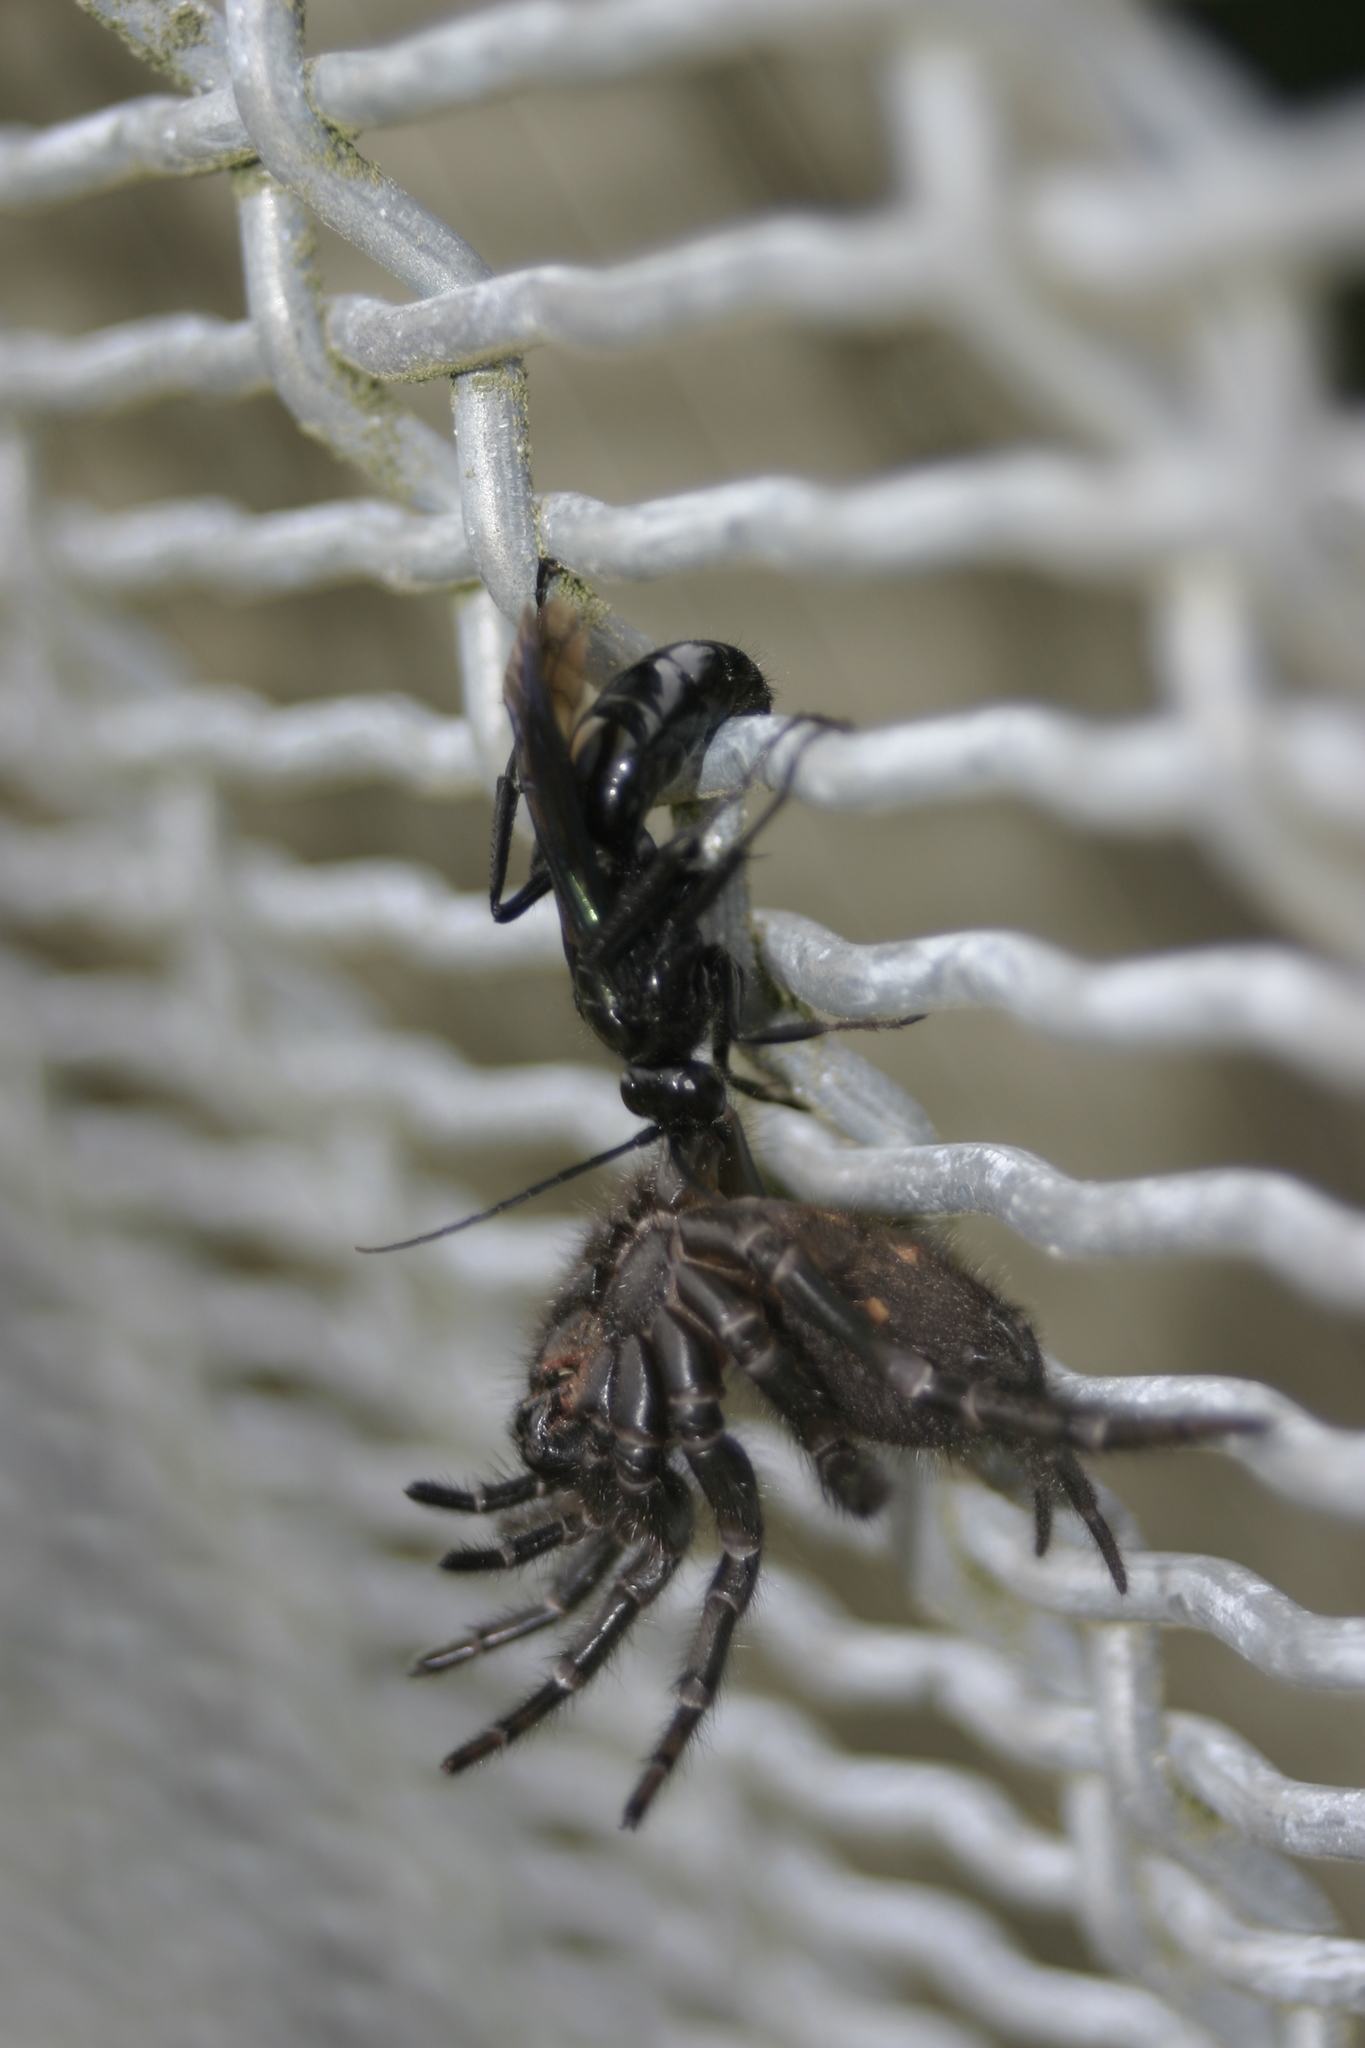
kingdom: Animalia
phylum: Arthropoda
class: Insecta
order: Hymenoptera
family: Pompilidae
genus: Priocnemis
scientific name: Priocnemis monachus
